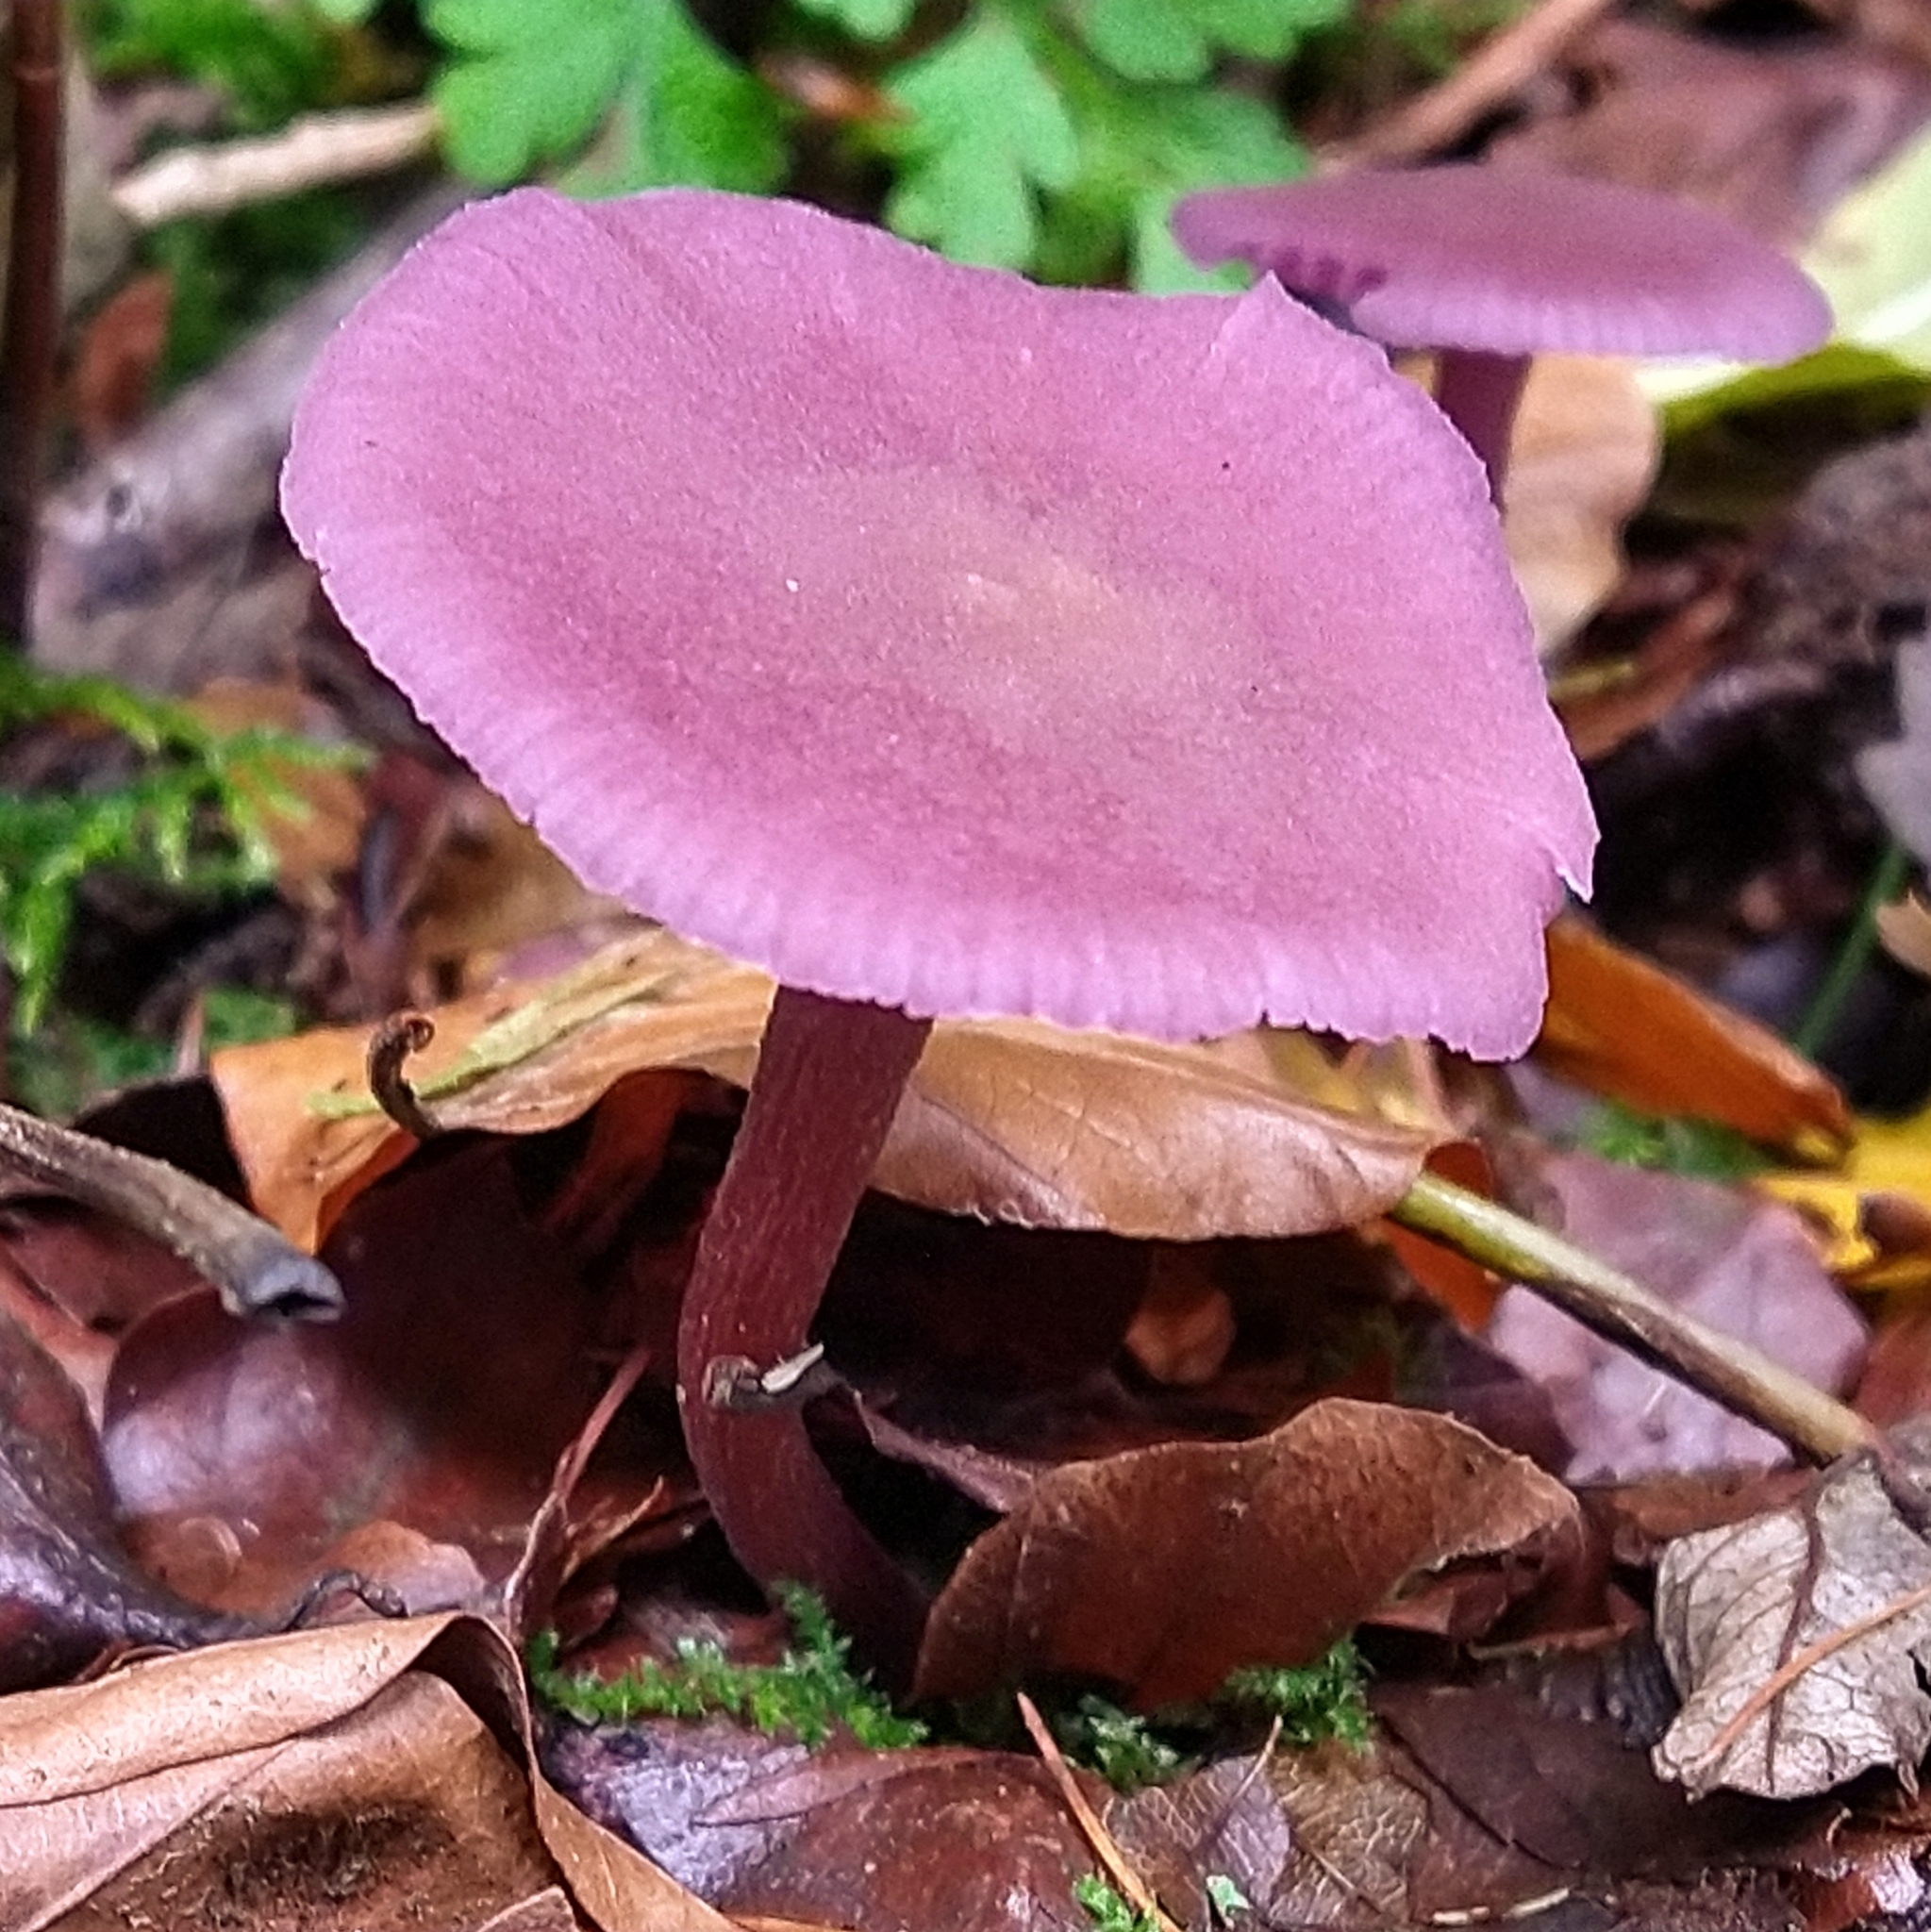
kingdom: Fungi
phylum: Basidiomycota
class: Agaricomycetes
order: Agaricales
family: Hydnangiaceae
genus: Laccaria
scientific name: Laccaria amethystina
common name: Amethyst deceiver
